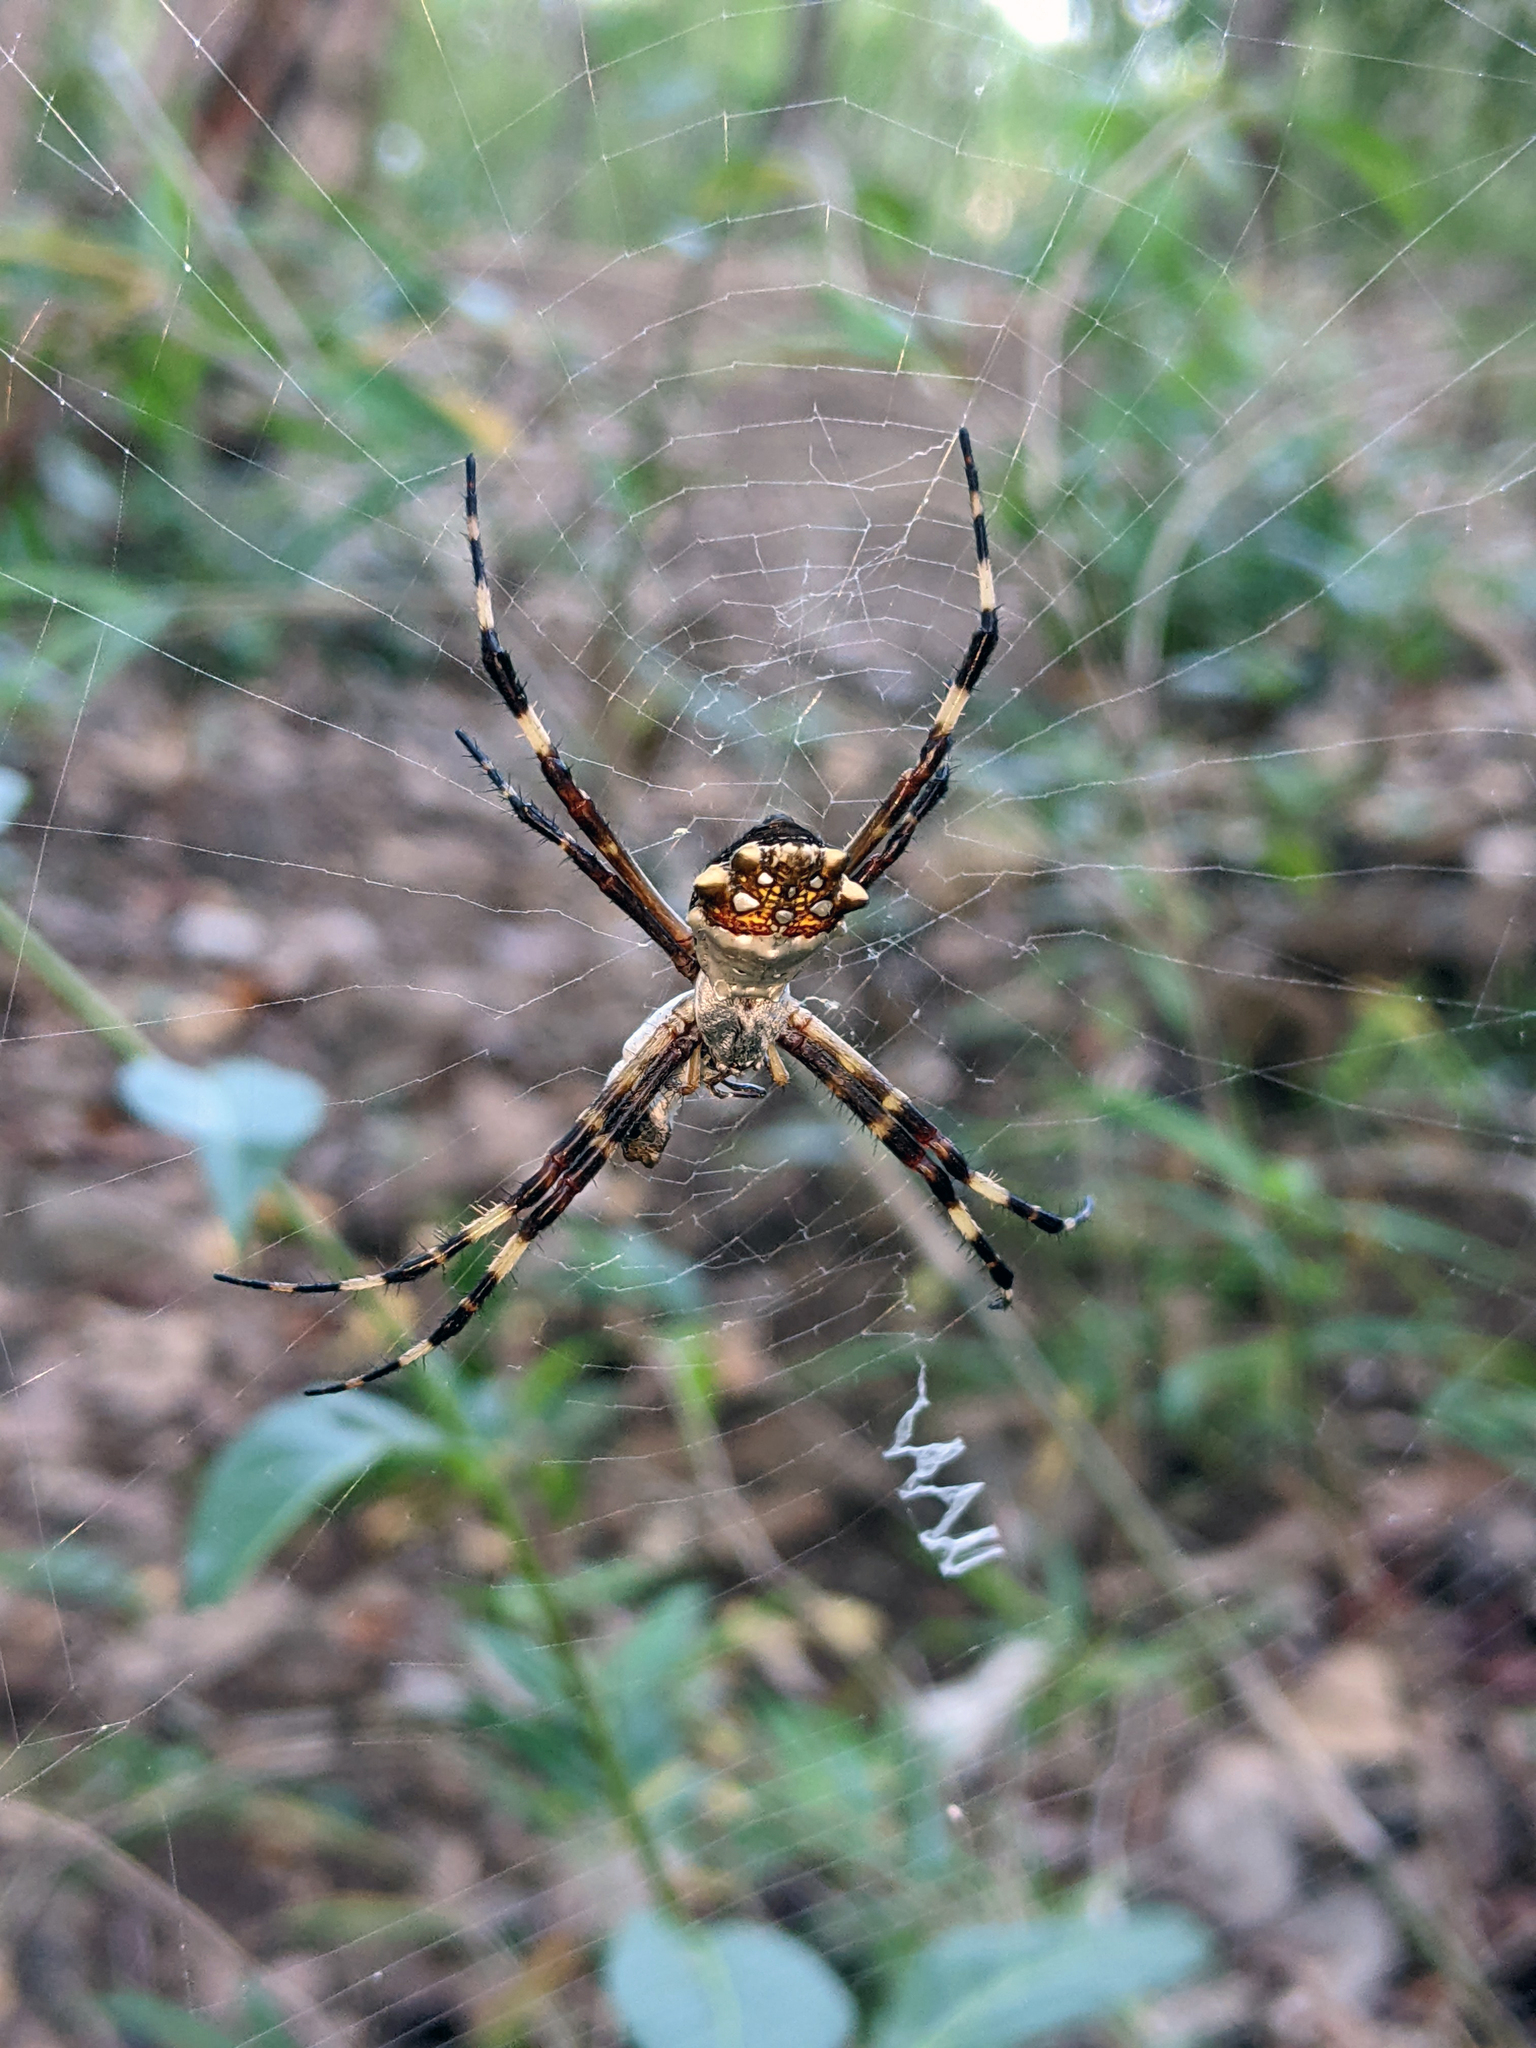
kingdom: Animalia
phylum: Arthropoda
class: Arachnida
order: Araneae
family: Araneidae
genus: Argiope
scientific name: Argiope argentata
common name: Orb weavers
